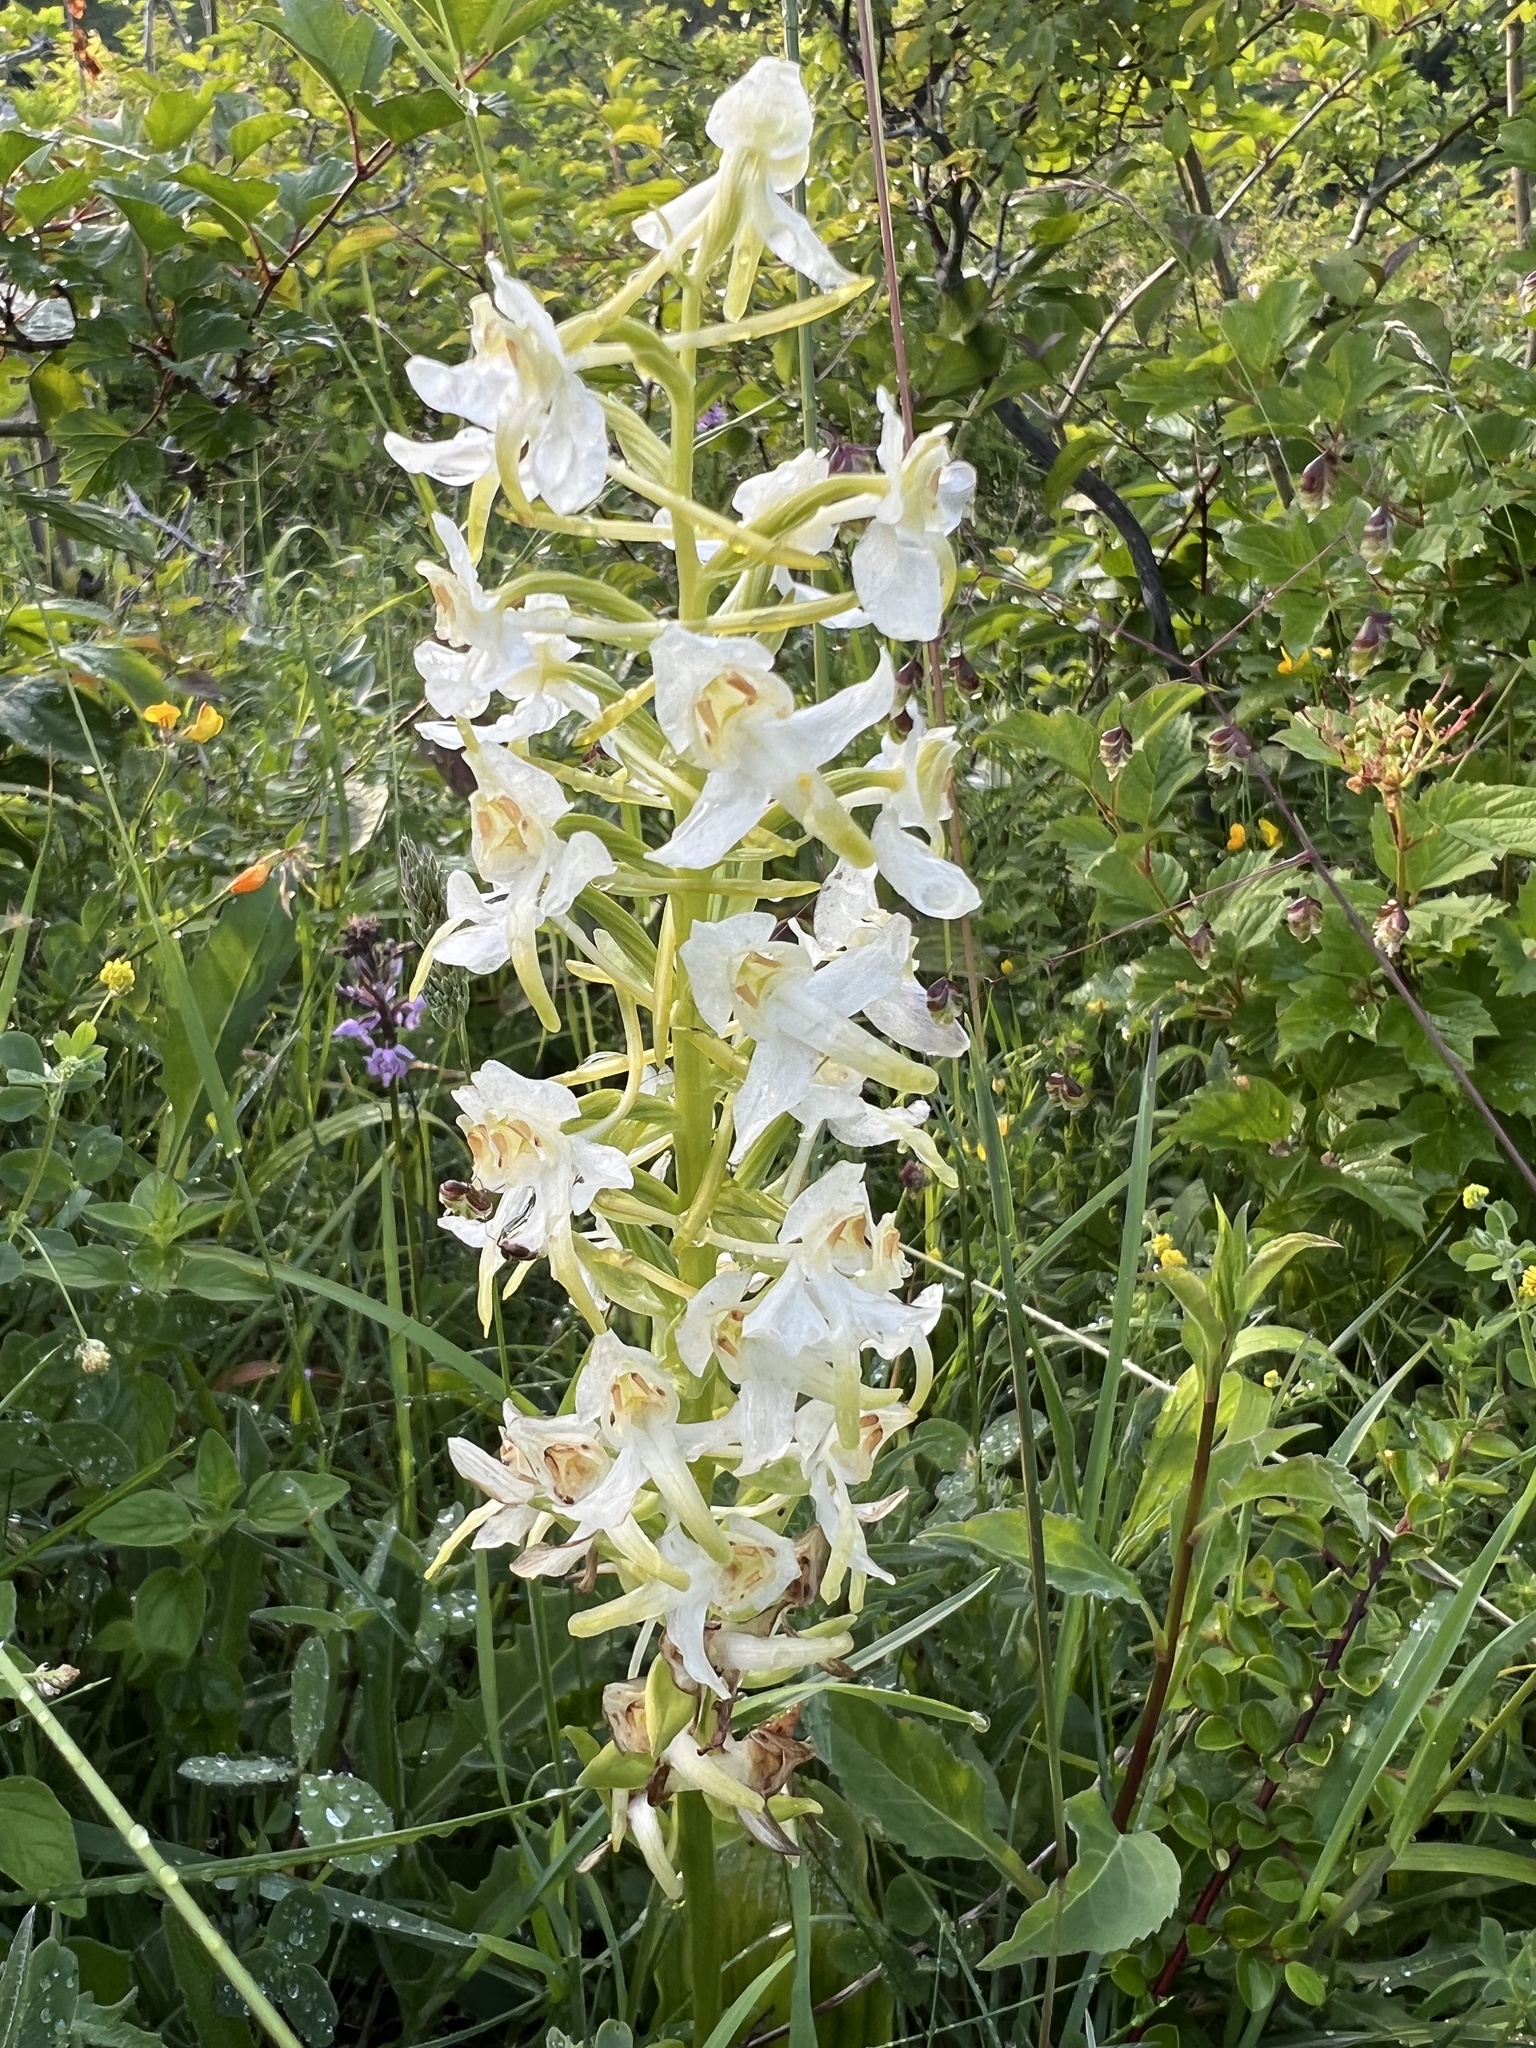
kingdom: Plantae
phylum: Tracheophyta
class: Liliopsida
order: Asparagales
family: Orchidaceae
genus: Platanthera
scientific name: Platanthera chlorantha
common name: Greater butterfly-orchid
